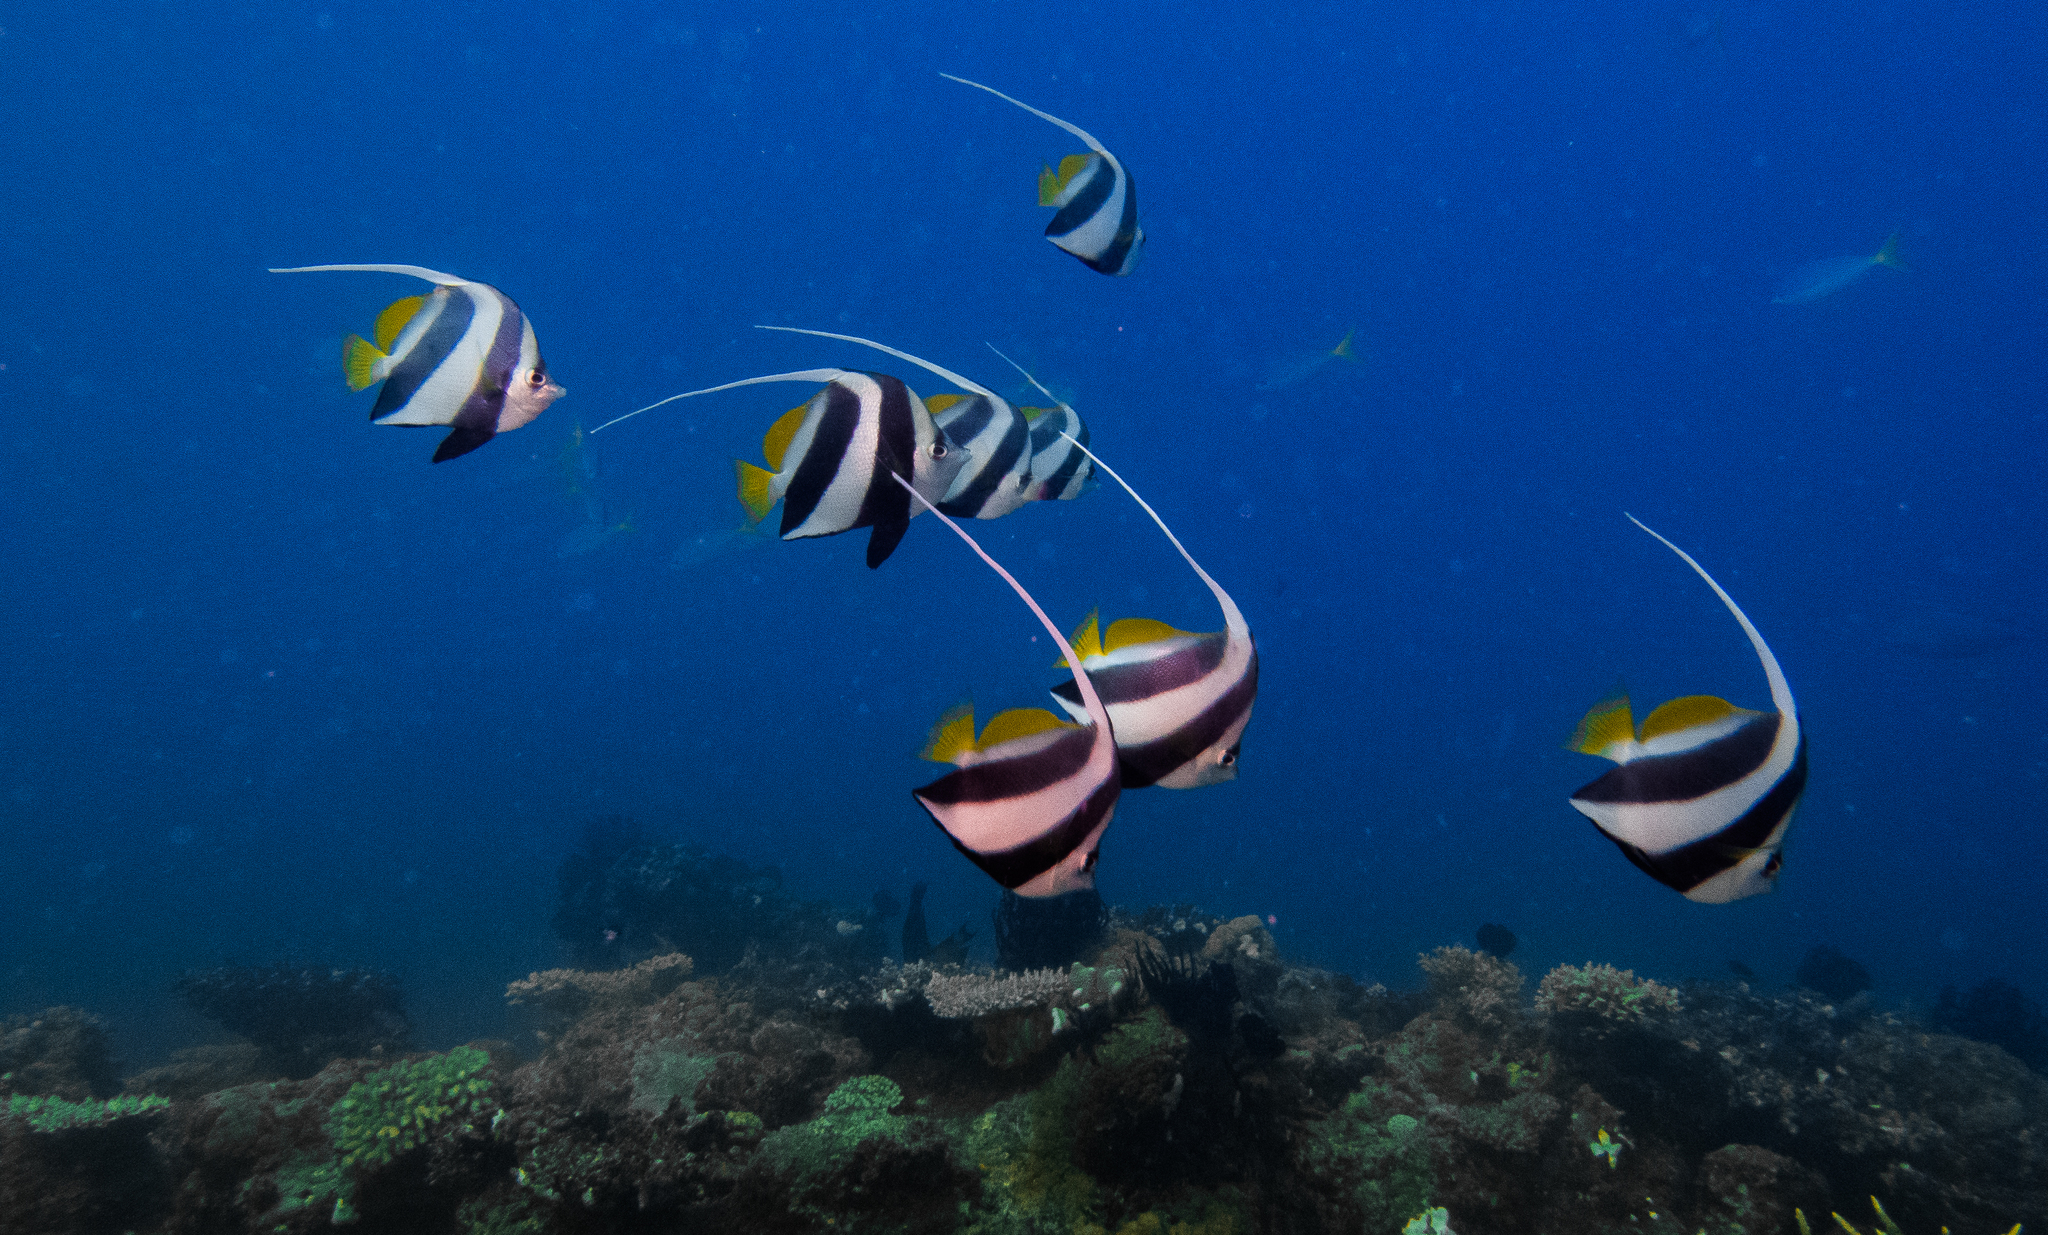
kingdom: Animalia
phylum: Chordata
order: Perciformes
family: Chaetodontidae
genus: Heniochus
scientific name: Heniochus diphreutes
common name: Pennantfish
